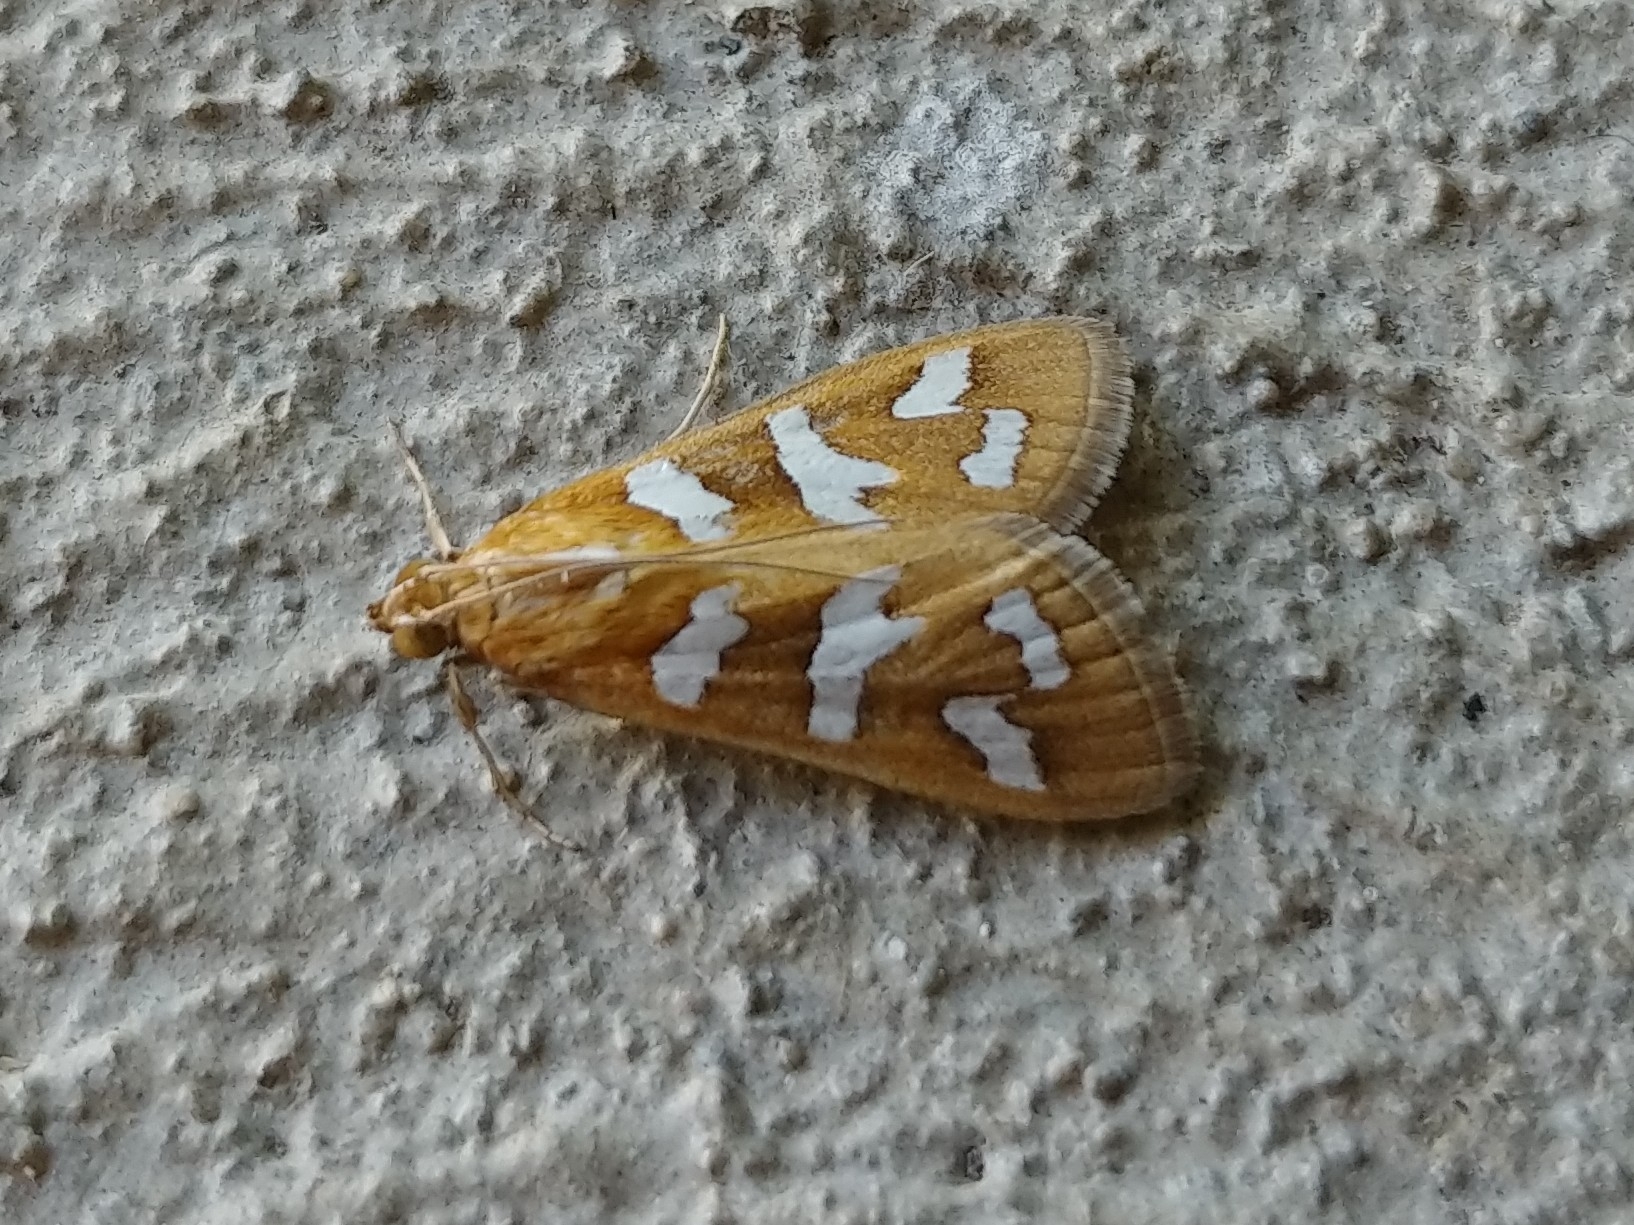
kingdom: Animalia
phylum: Arthropoda
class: Insecta
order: Lepidoptera
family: Crambidae
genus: Diastictis
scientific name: Diastictis fracturalis
